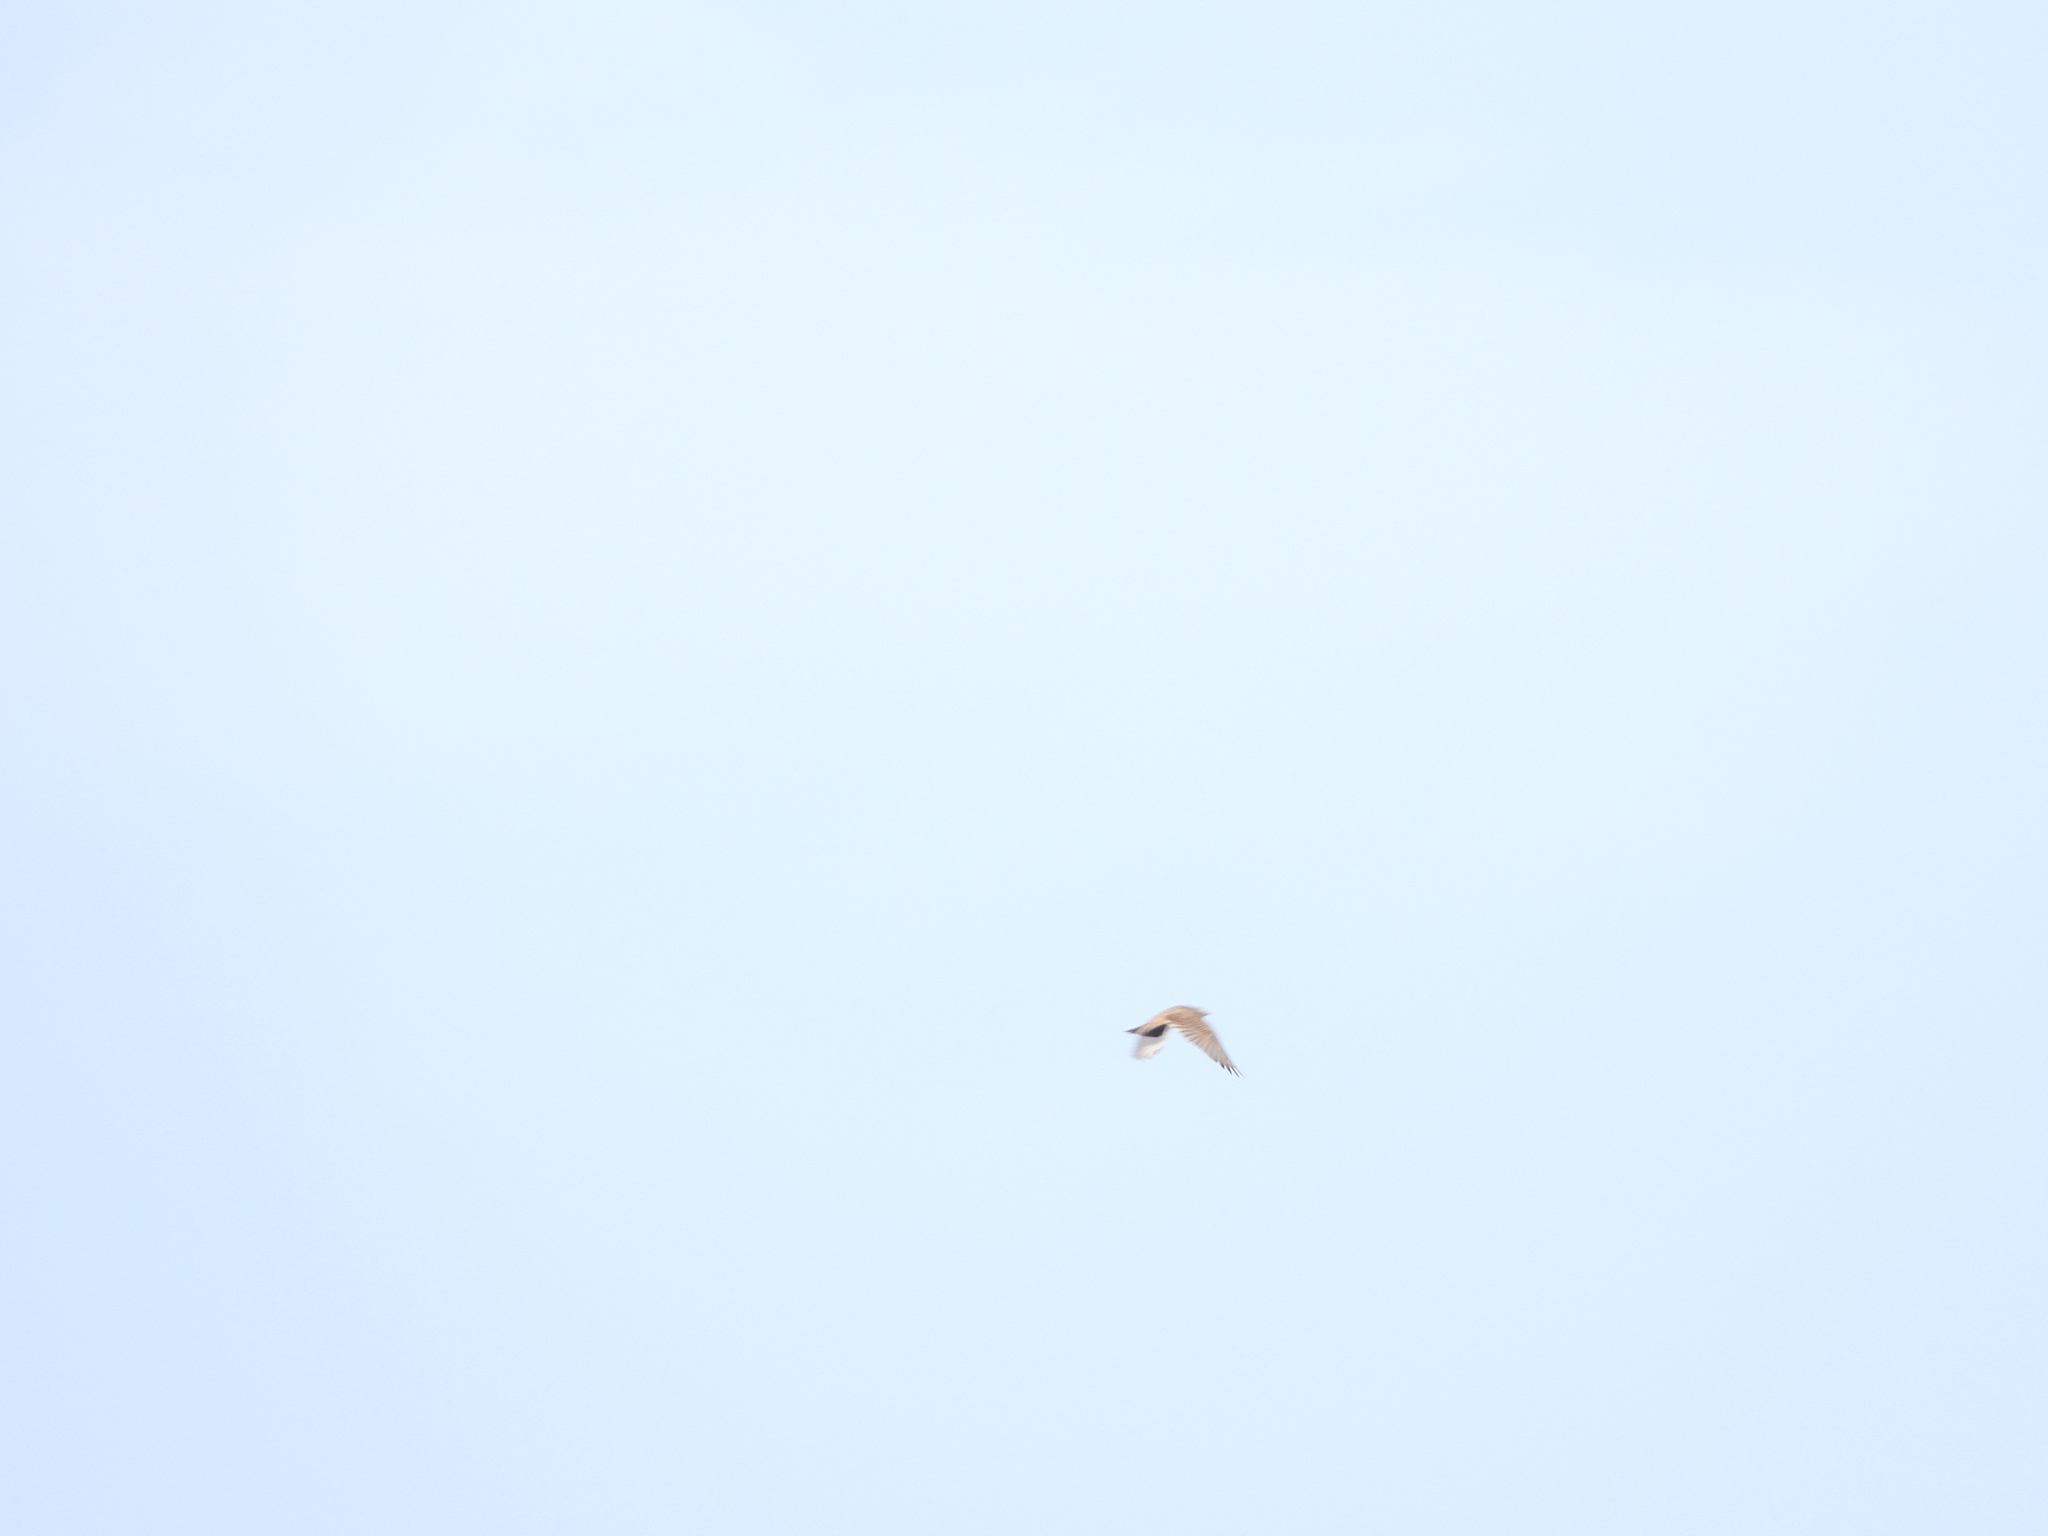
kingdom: Animalia
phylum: Chordata
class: Aves
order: Passeriformes
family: Alaudidae
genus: Eremophila
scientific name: Eremophila alpestris
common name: Horned lark
